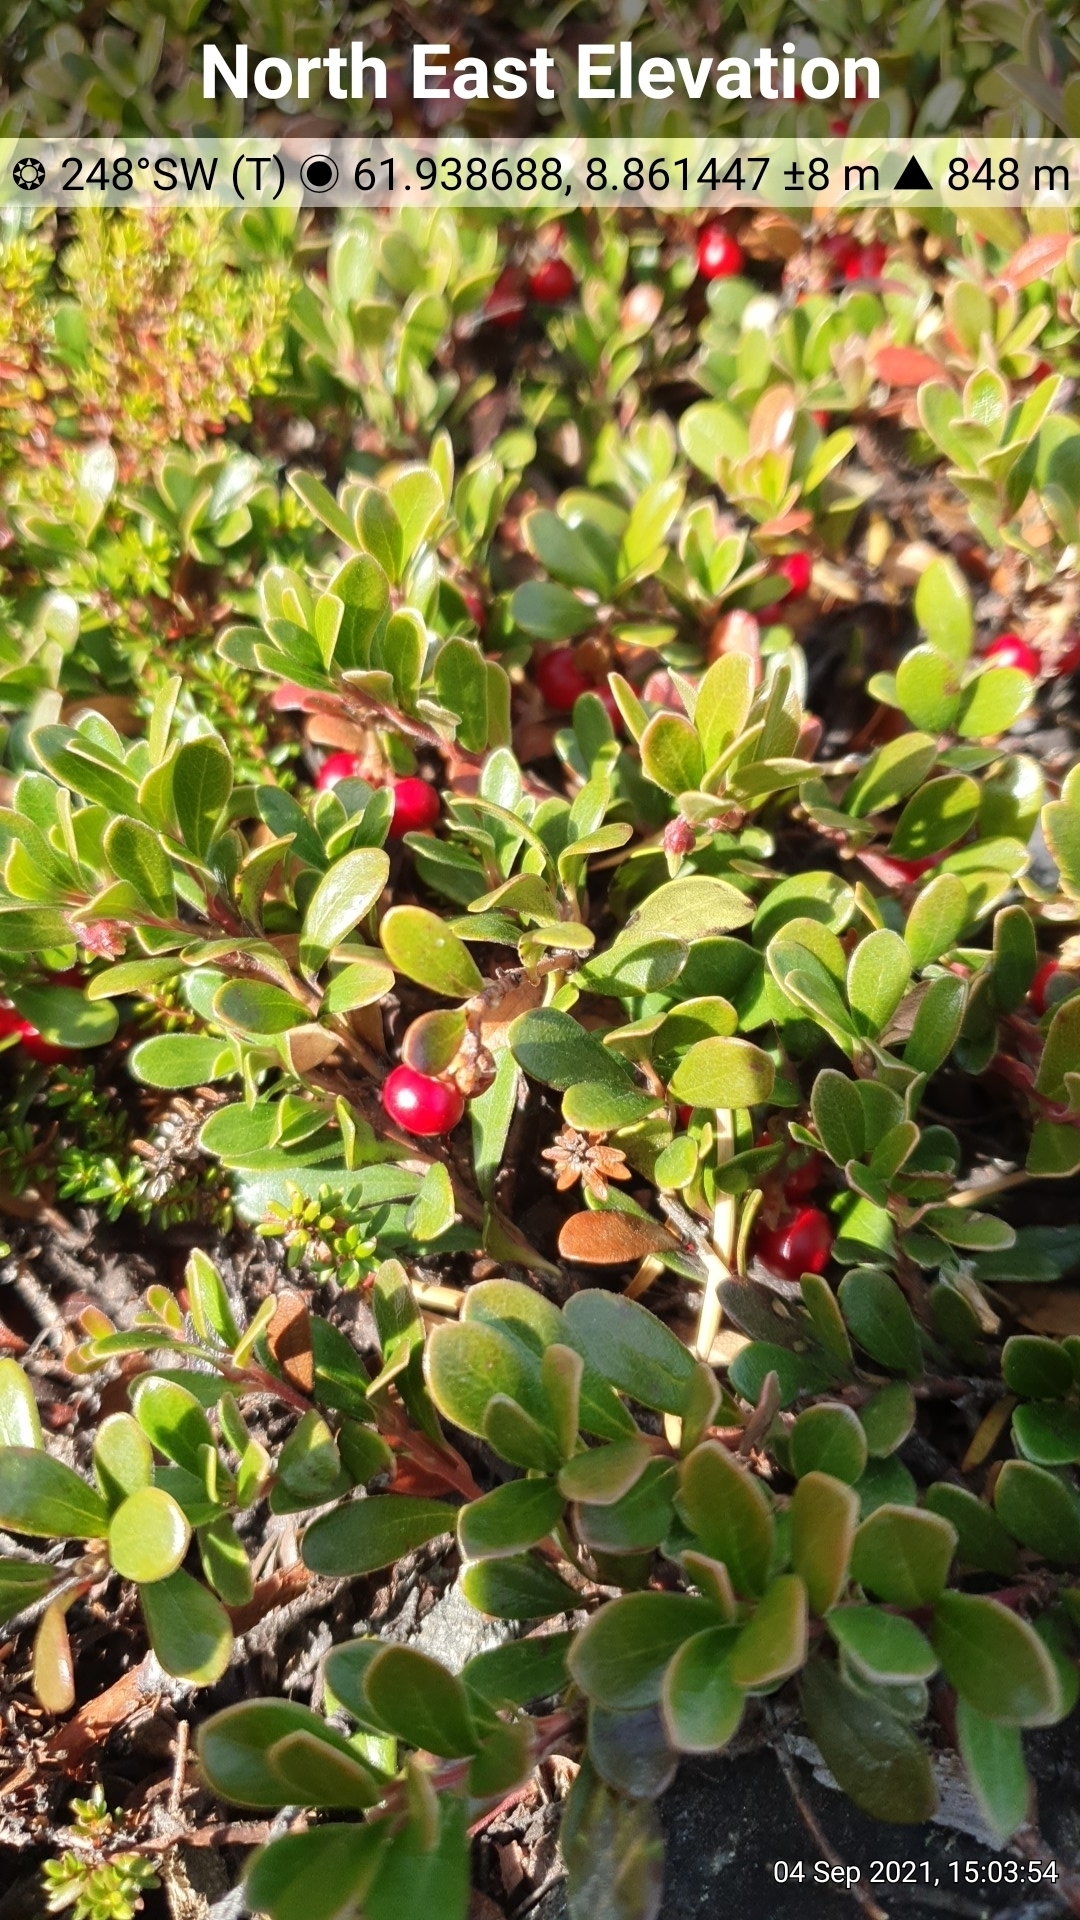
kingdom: Plantae
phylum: Tracheophyta
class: Magnoliopsida
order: Ericales
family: Ericaceae
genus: Arctostaphylos
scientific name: Arctostaphylos uva-ursi
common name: Bearberry
